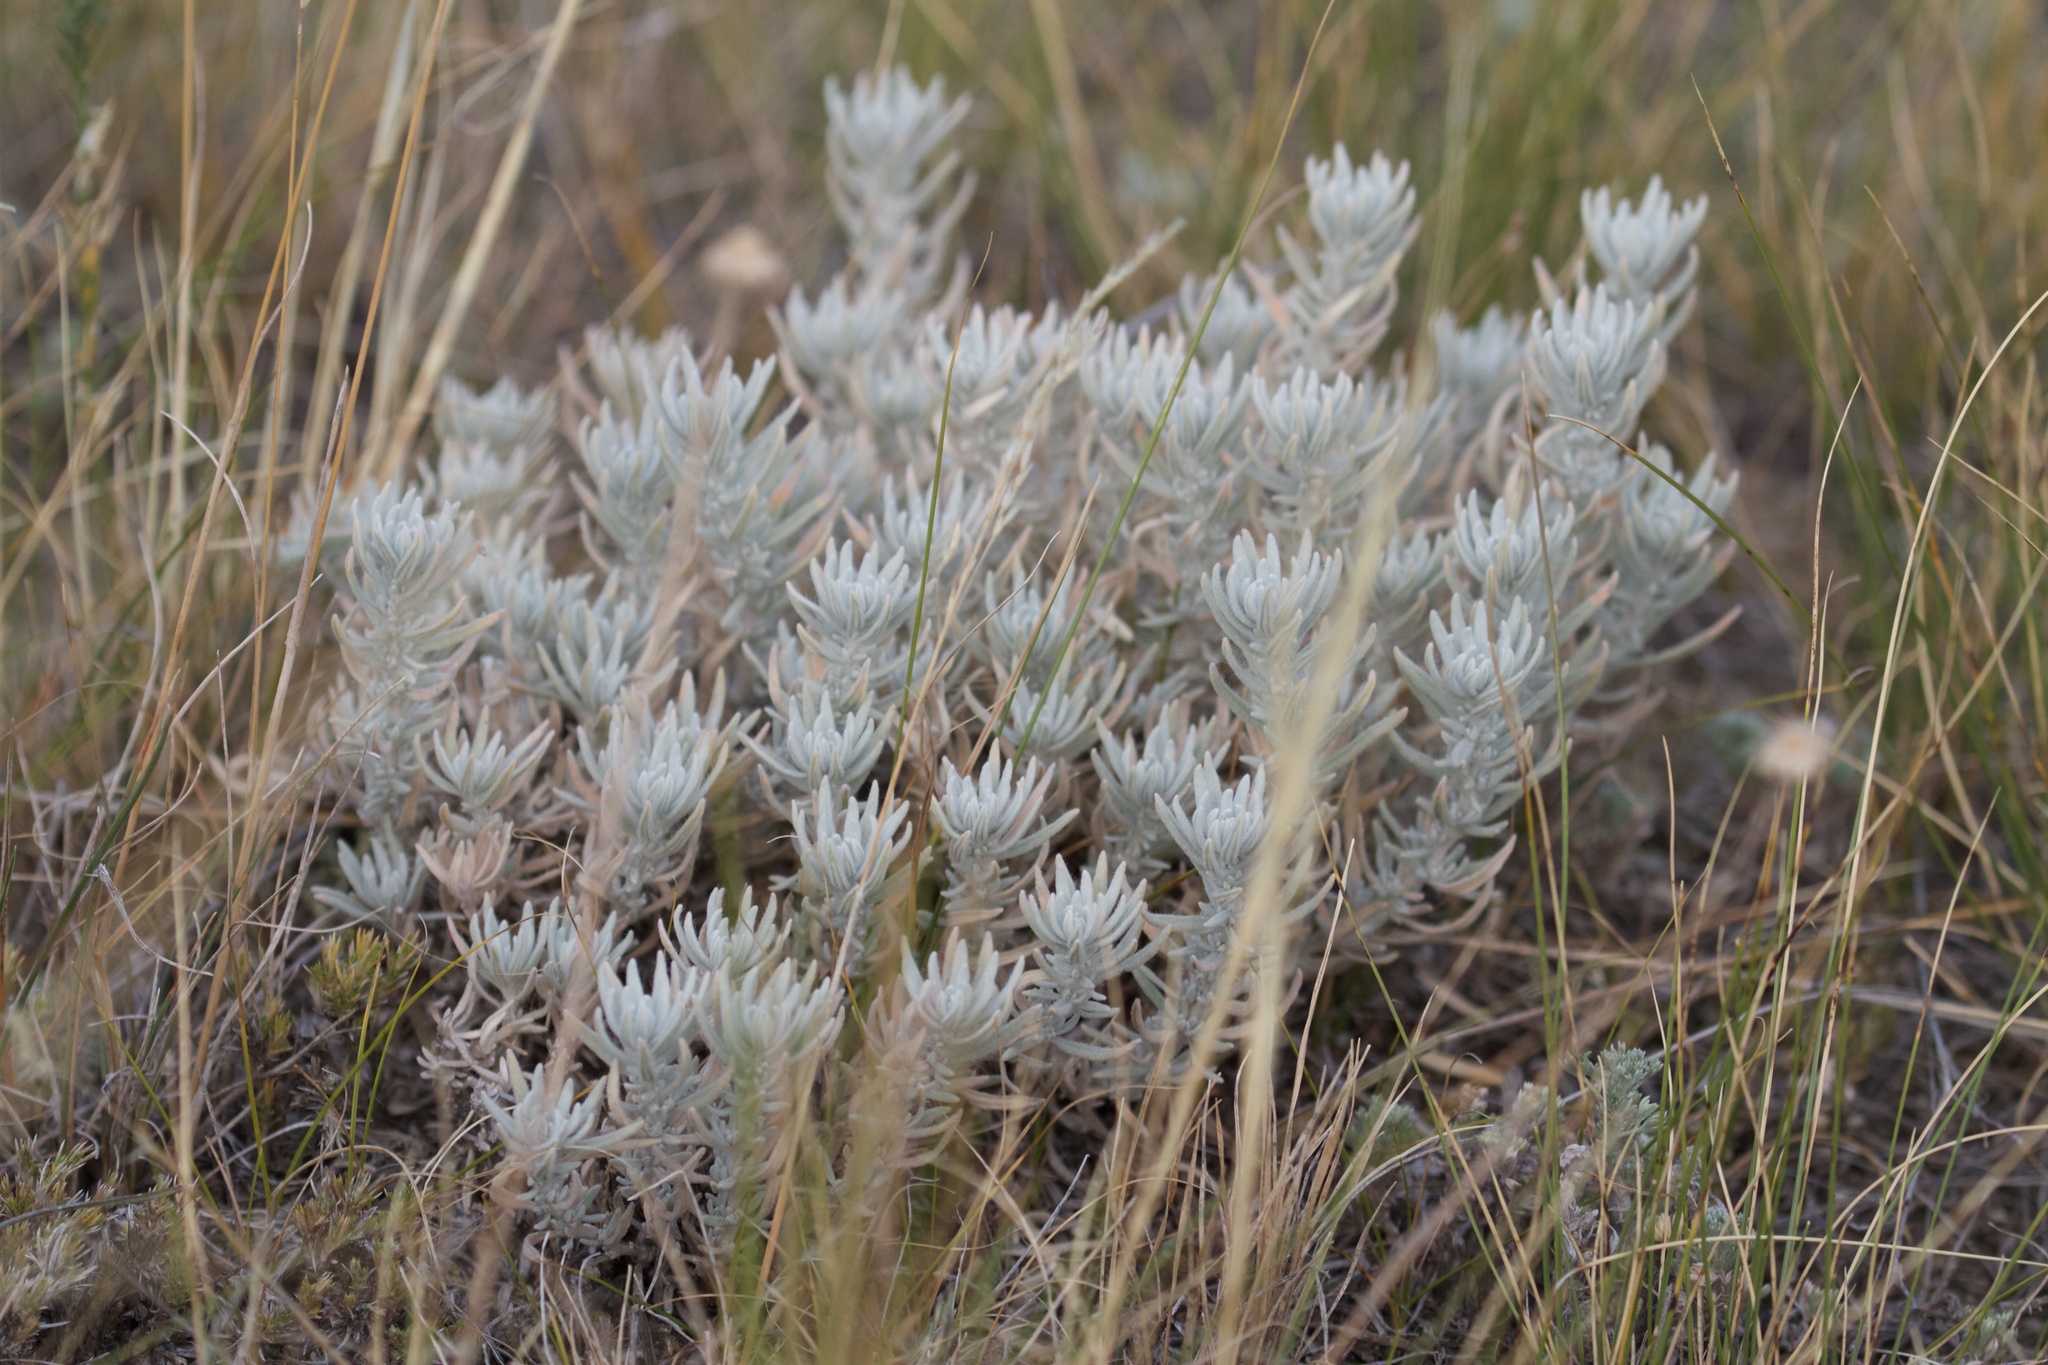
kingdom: Plantae
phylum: Tracheophyta
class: Magnoliopsida
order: Caryophyllales
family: Amaranthaceae
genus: Krascheninnikovia
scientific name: Krascheninnikovia lanata
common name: Winterfat
